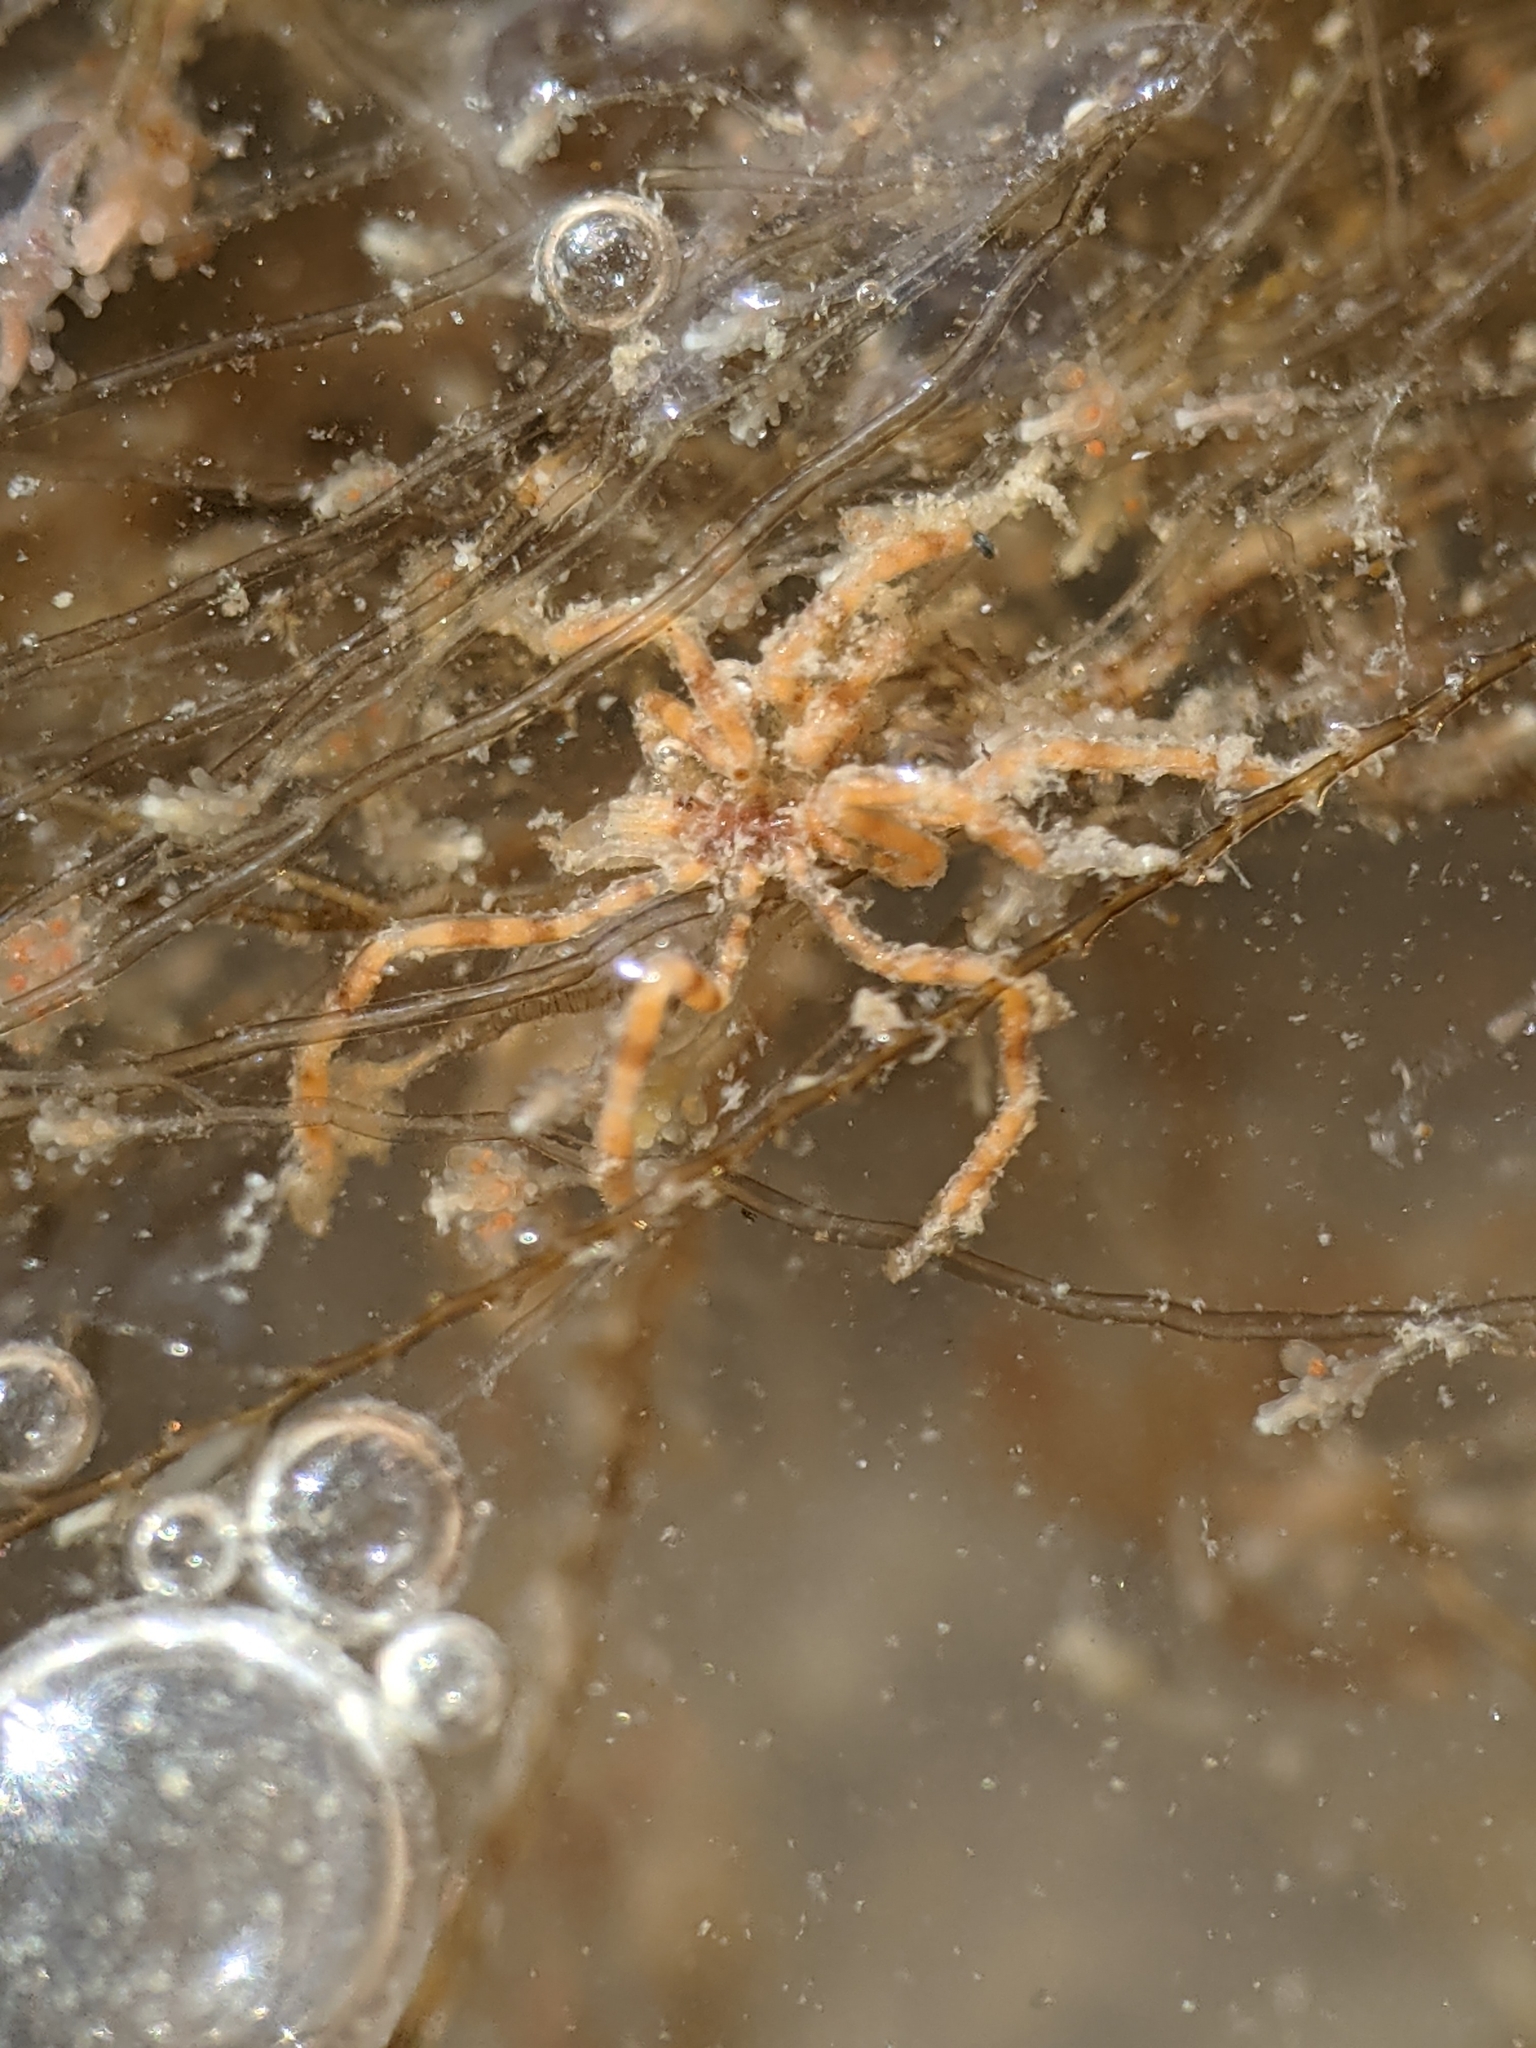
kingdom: Animalia
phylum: Arthropoda
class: Pycnogonida
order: Pantopoda
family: Ammotheidae
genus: Ammothea
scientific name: Ammothea hilgendorfi
